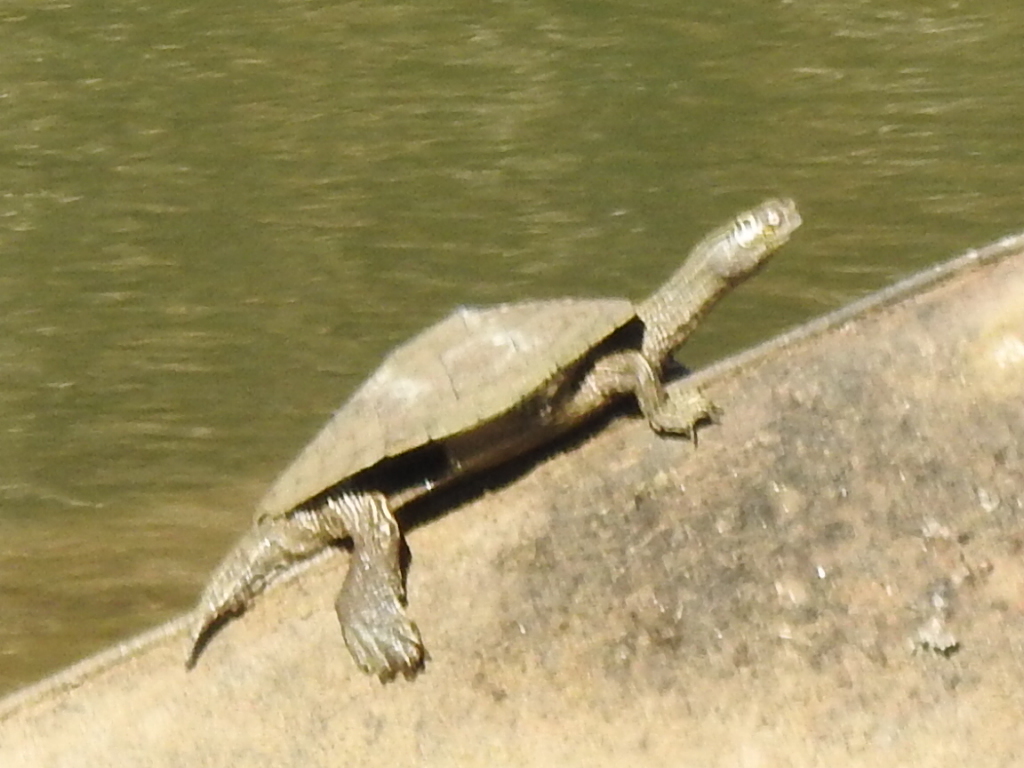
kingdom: Animalia
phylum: Chordata
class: Testudines
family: Emydidae
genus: Graptemys
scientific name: Graptemys pseudogeographica
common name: False map turtle
